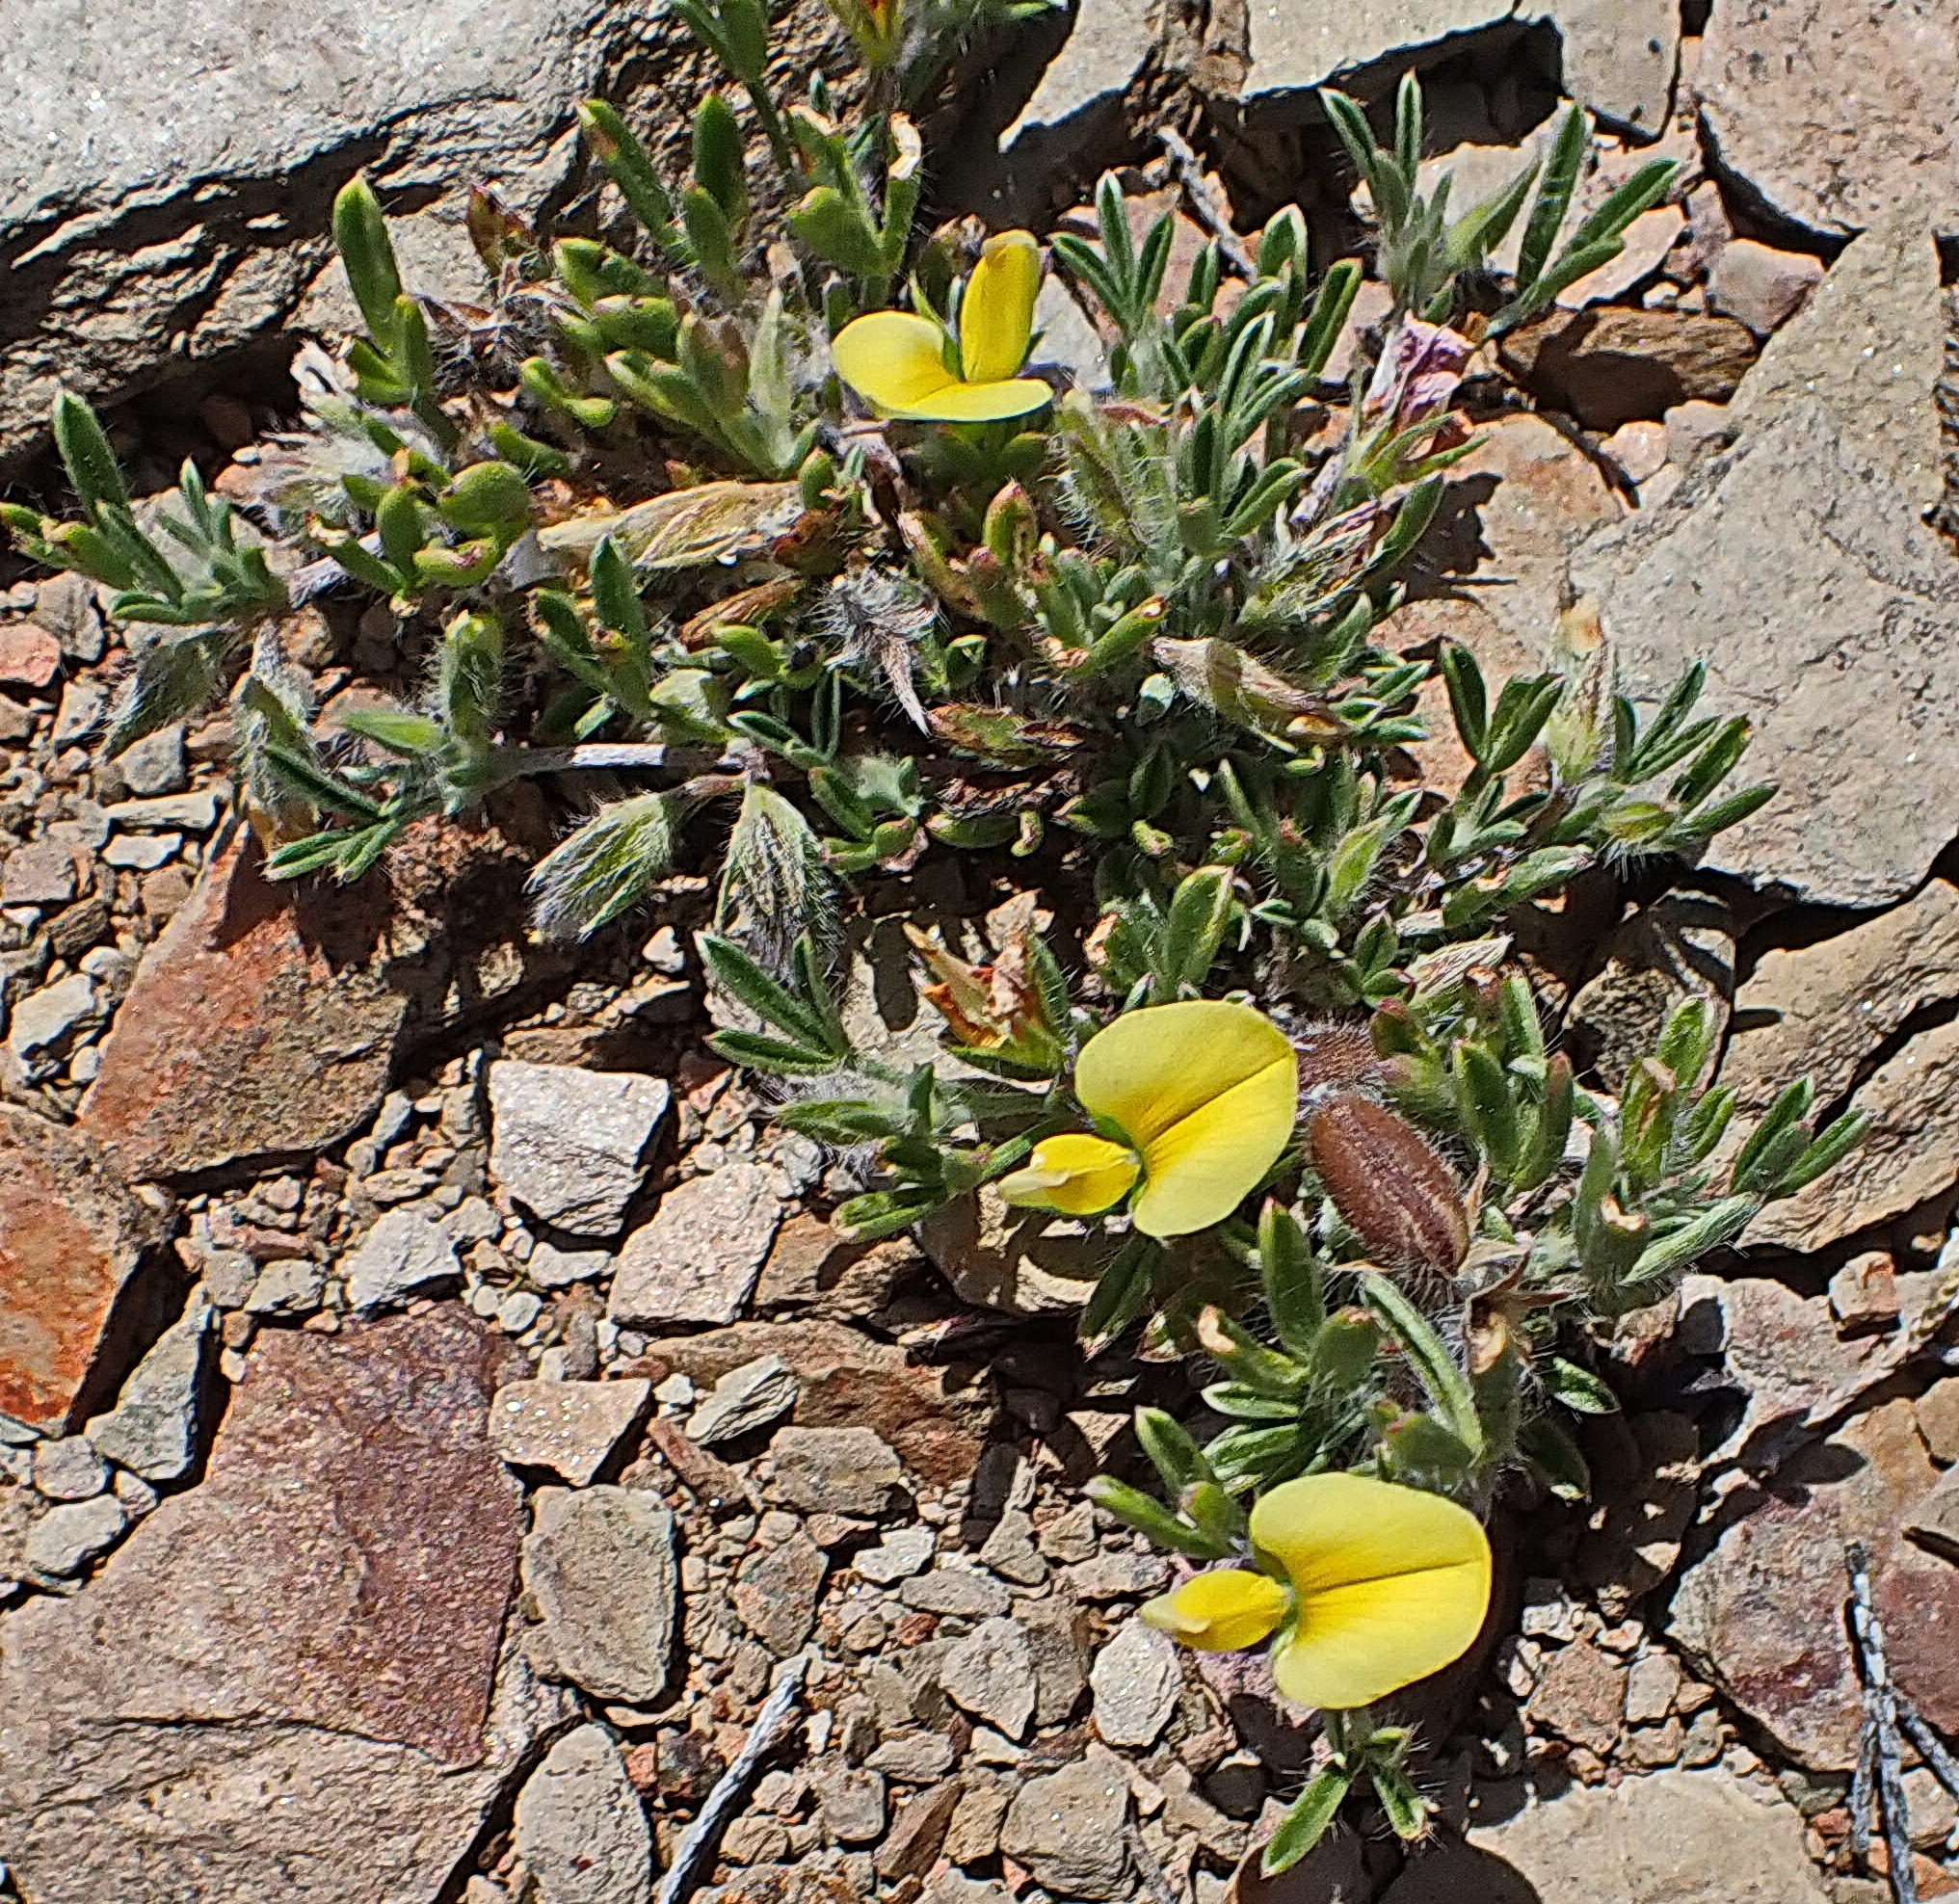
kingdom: Plantae
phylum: Tracheophyta
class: Magnoliopsida
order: Fabales
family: Fabaceae
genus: Lotononis
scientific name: Lotononis pungens
